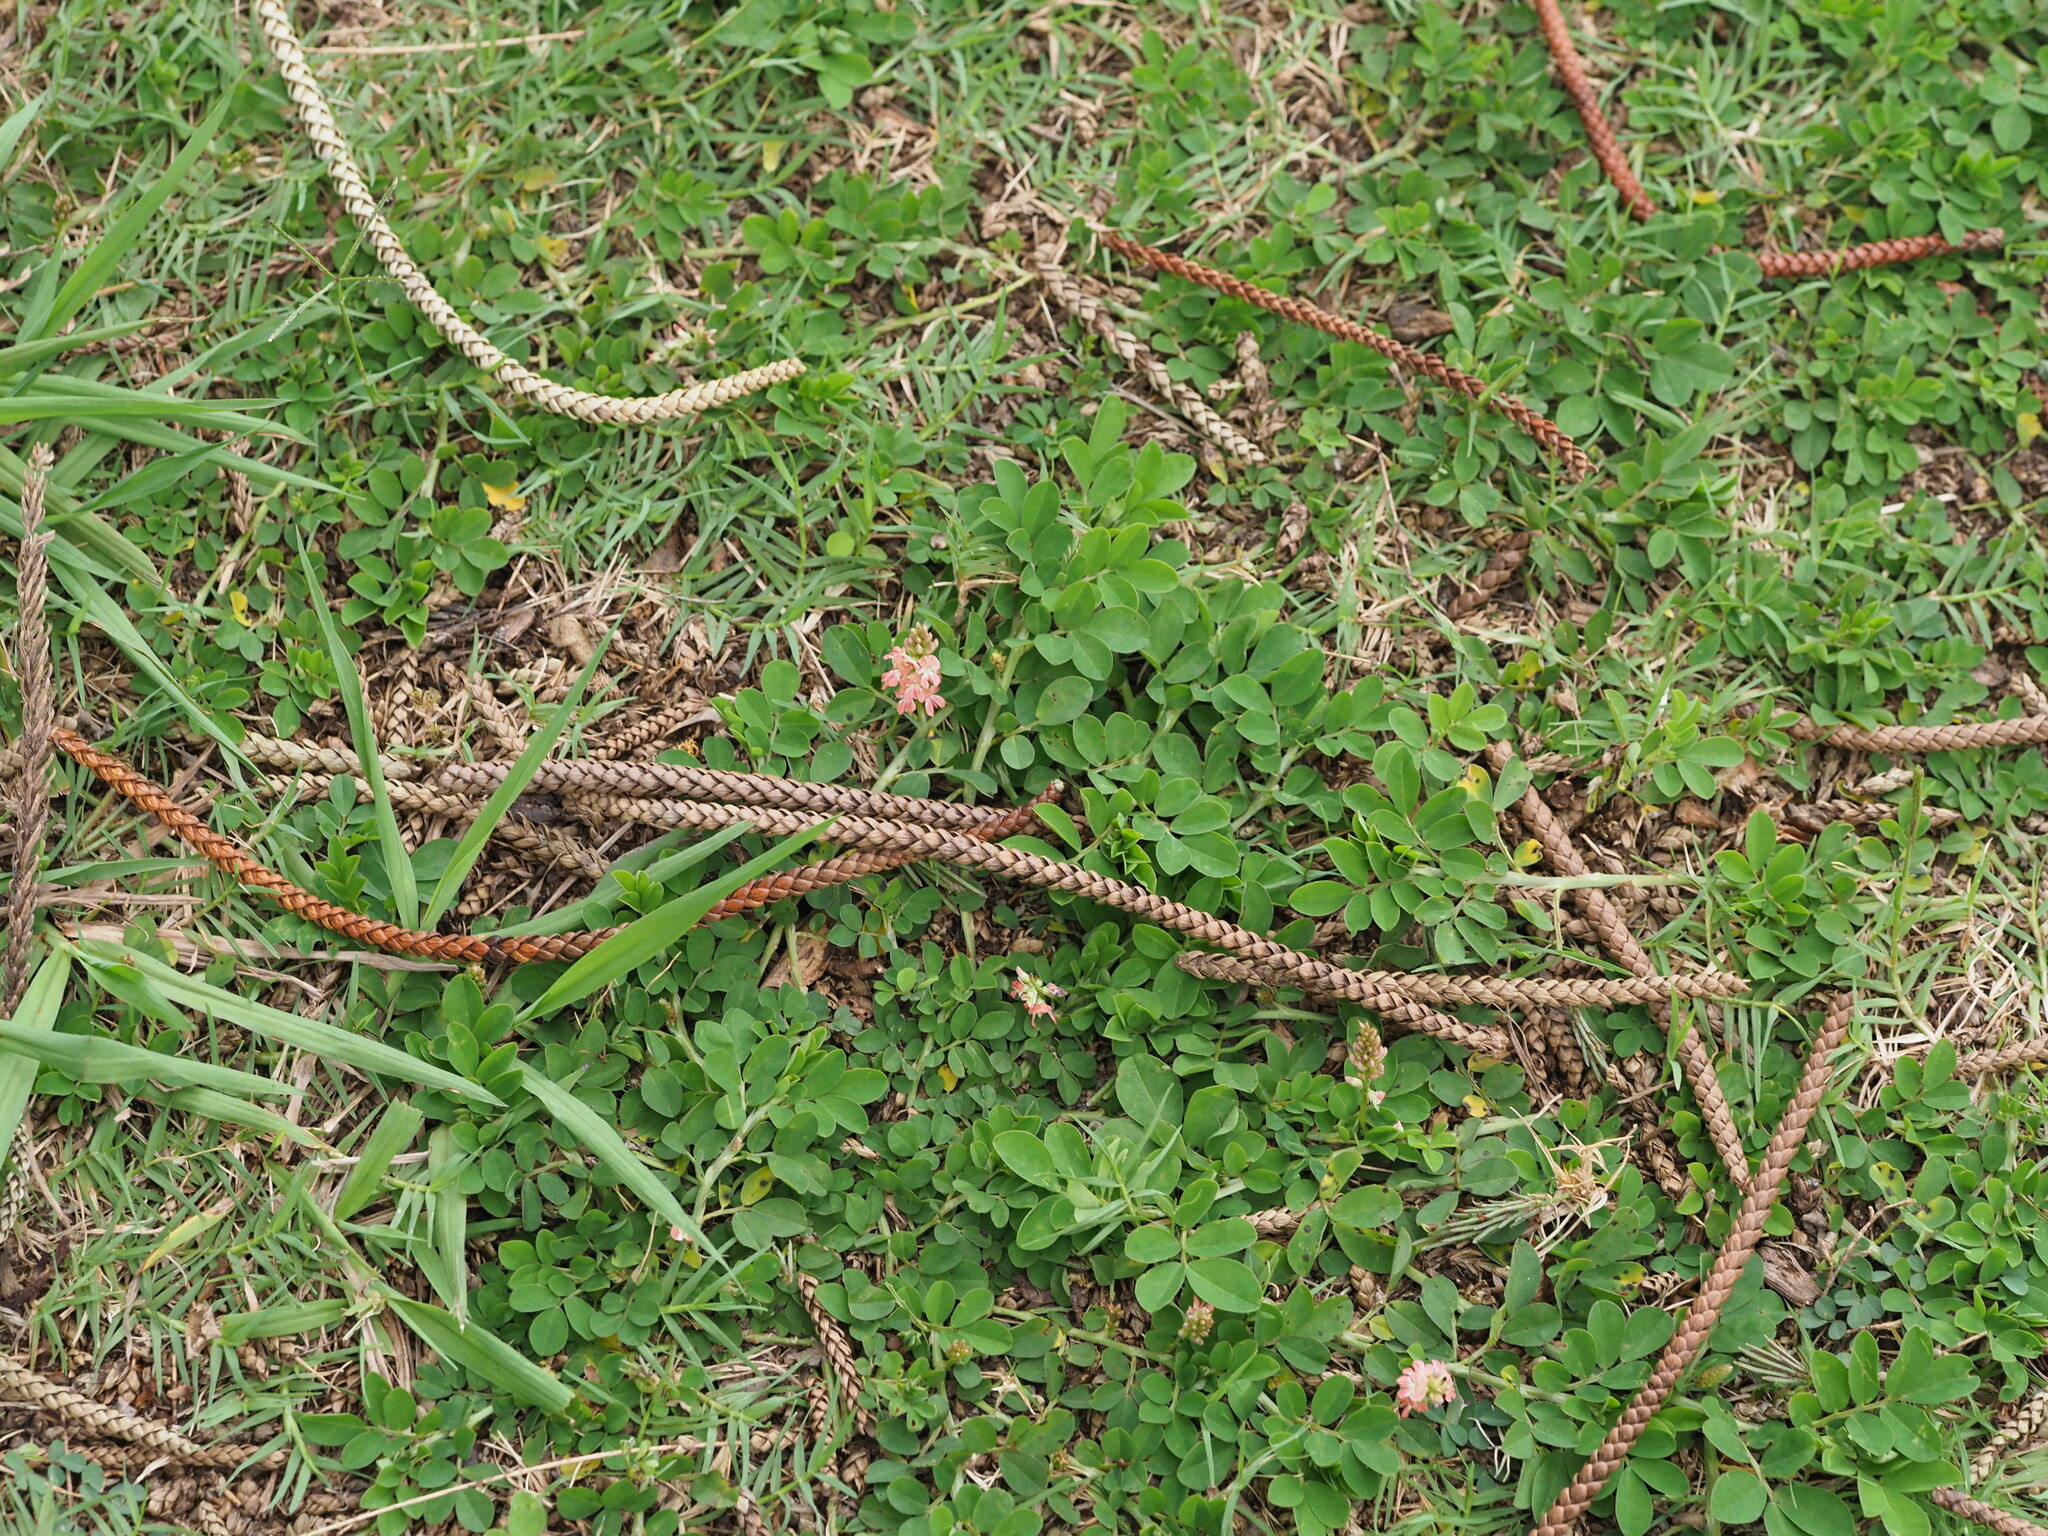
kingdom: Plantae
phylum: Tracheophyta
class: Magnoliopsida
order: Fabales
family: Fabaceae
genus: Indigofera
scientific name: Indigofera spicata
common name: Creeping indigo
